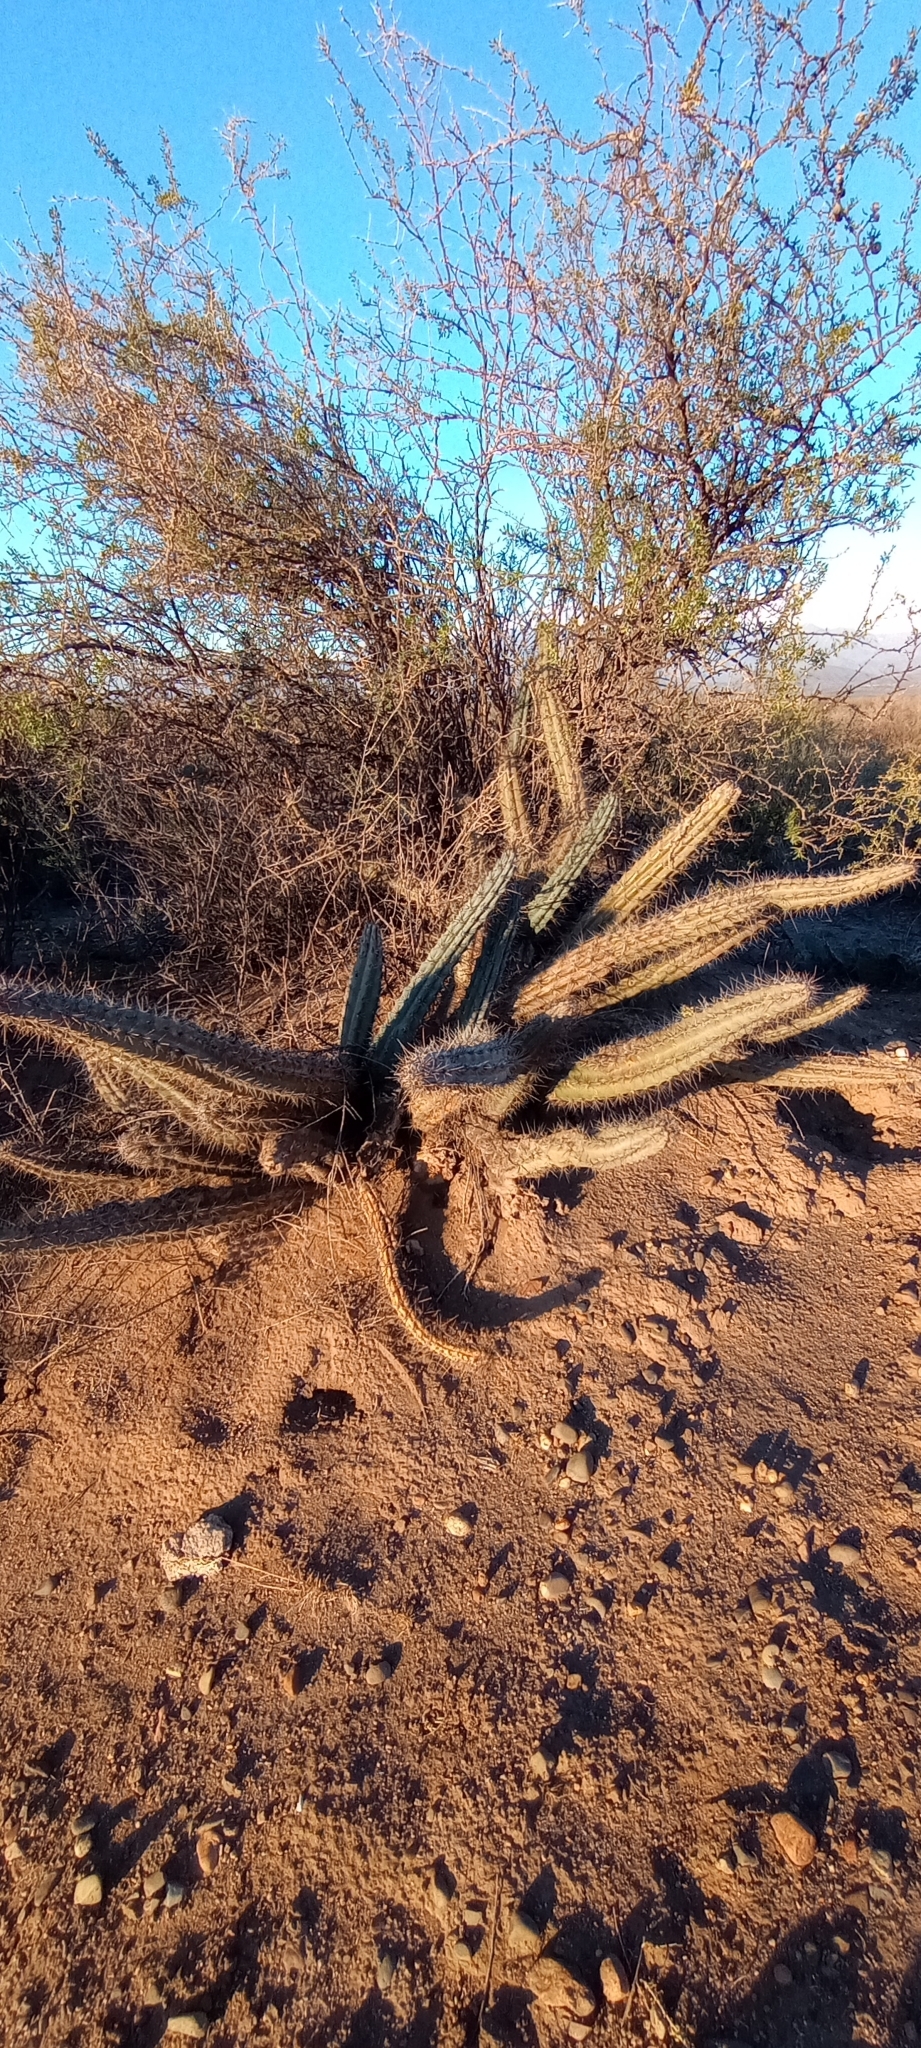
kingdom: Plantae
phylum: Tracheophyta
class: Magnoliopsida
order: Caryophyllales
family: Cactaceae
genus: Cereus
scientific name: Cereus aethiops
